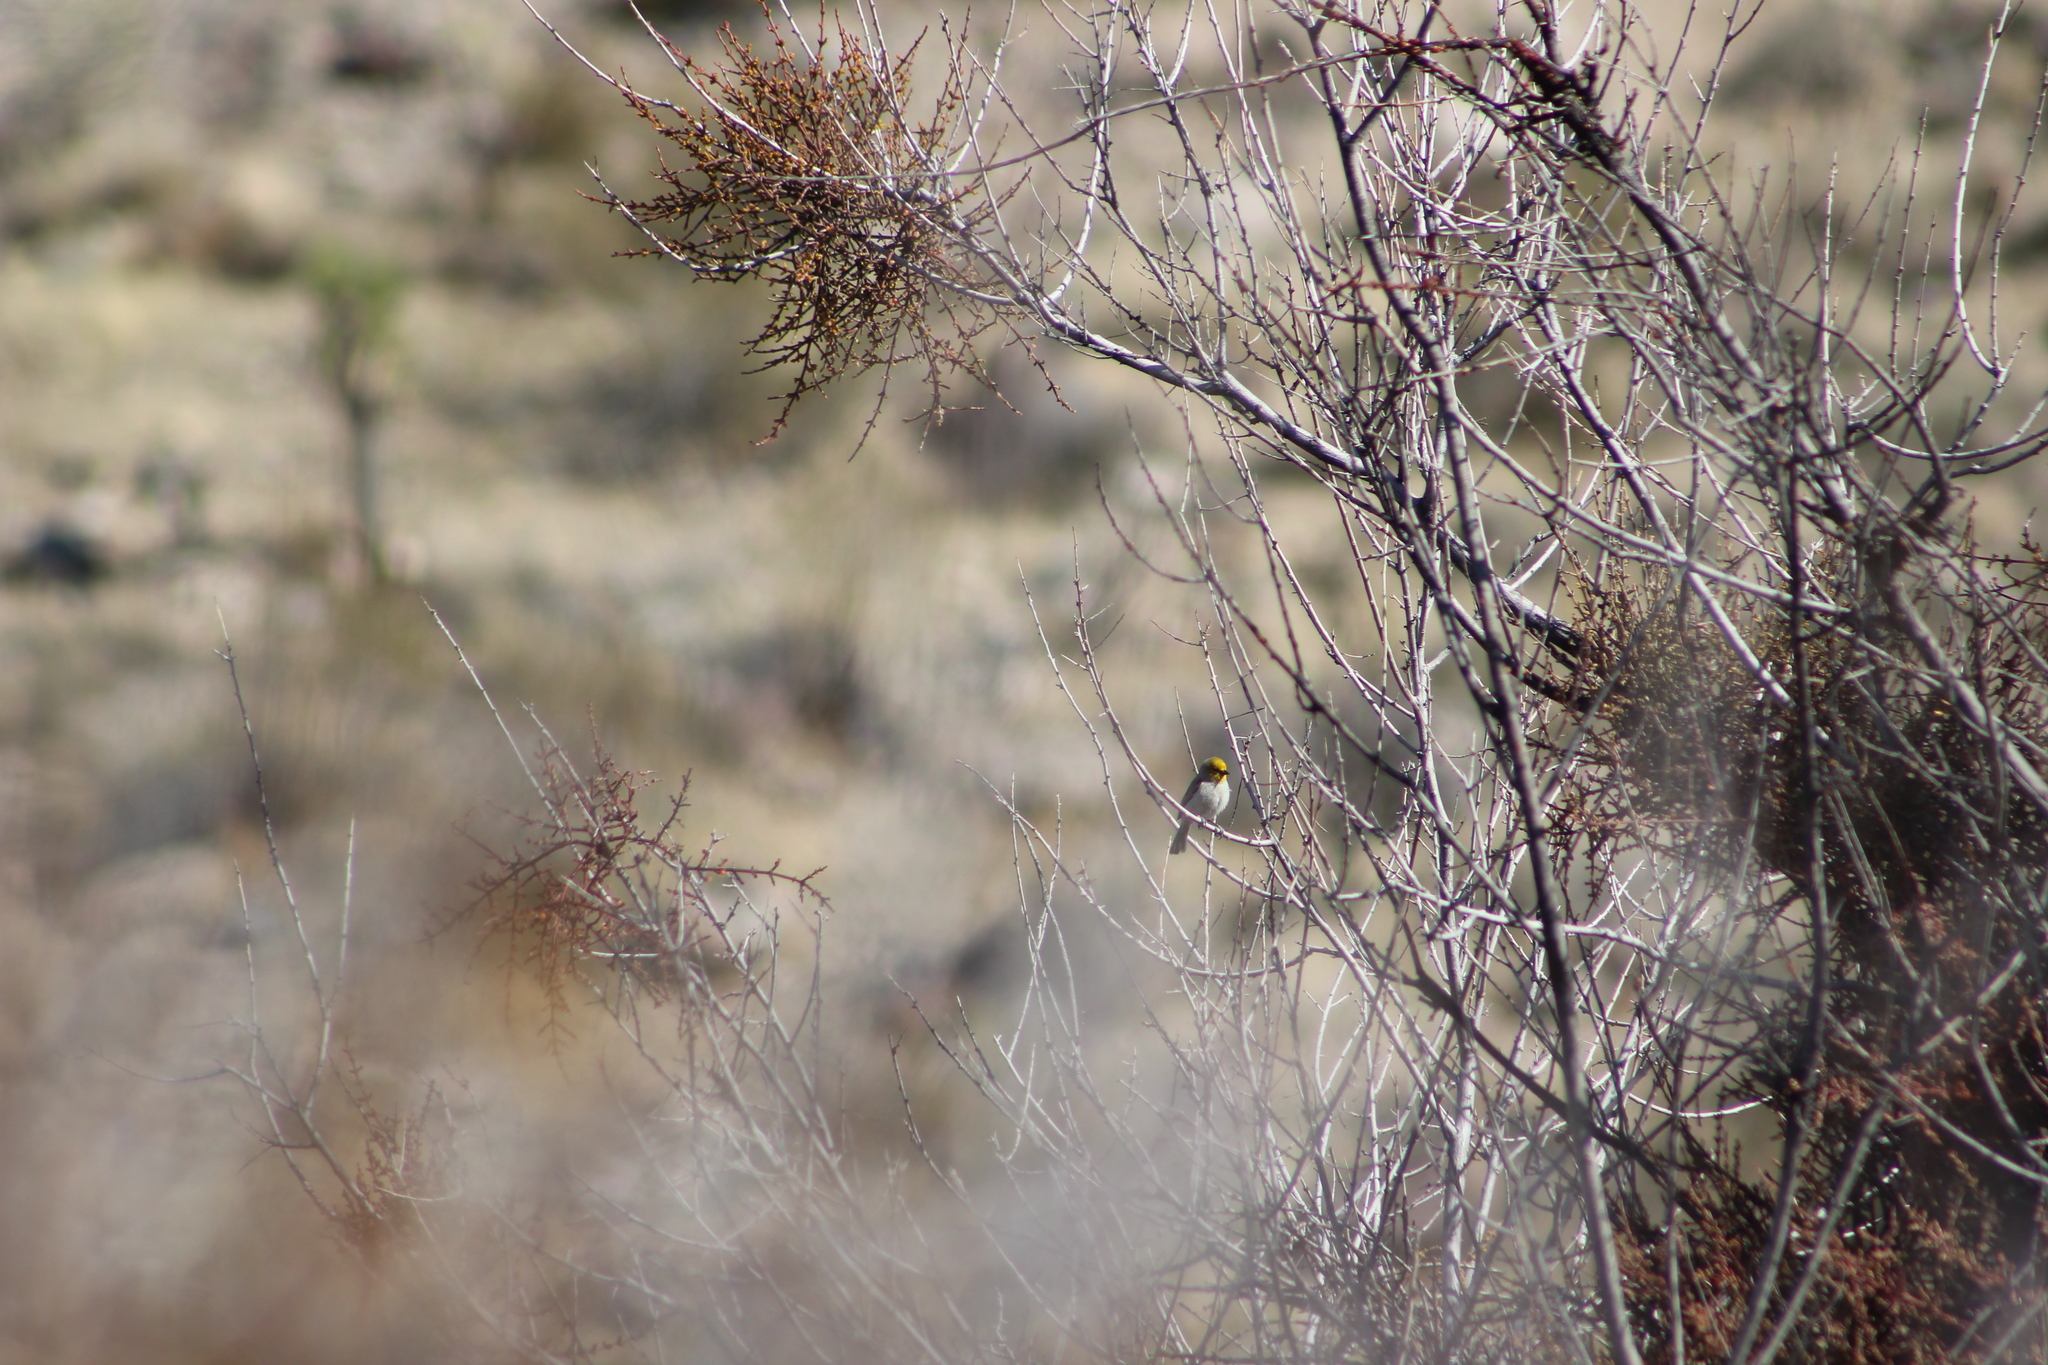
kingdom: Animalia
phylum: Chordata
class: Aves
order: Passeriformes
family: Remizidae
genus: Auriparus
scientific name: Auriparus flaviceps
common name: Verdin
